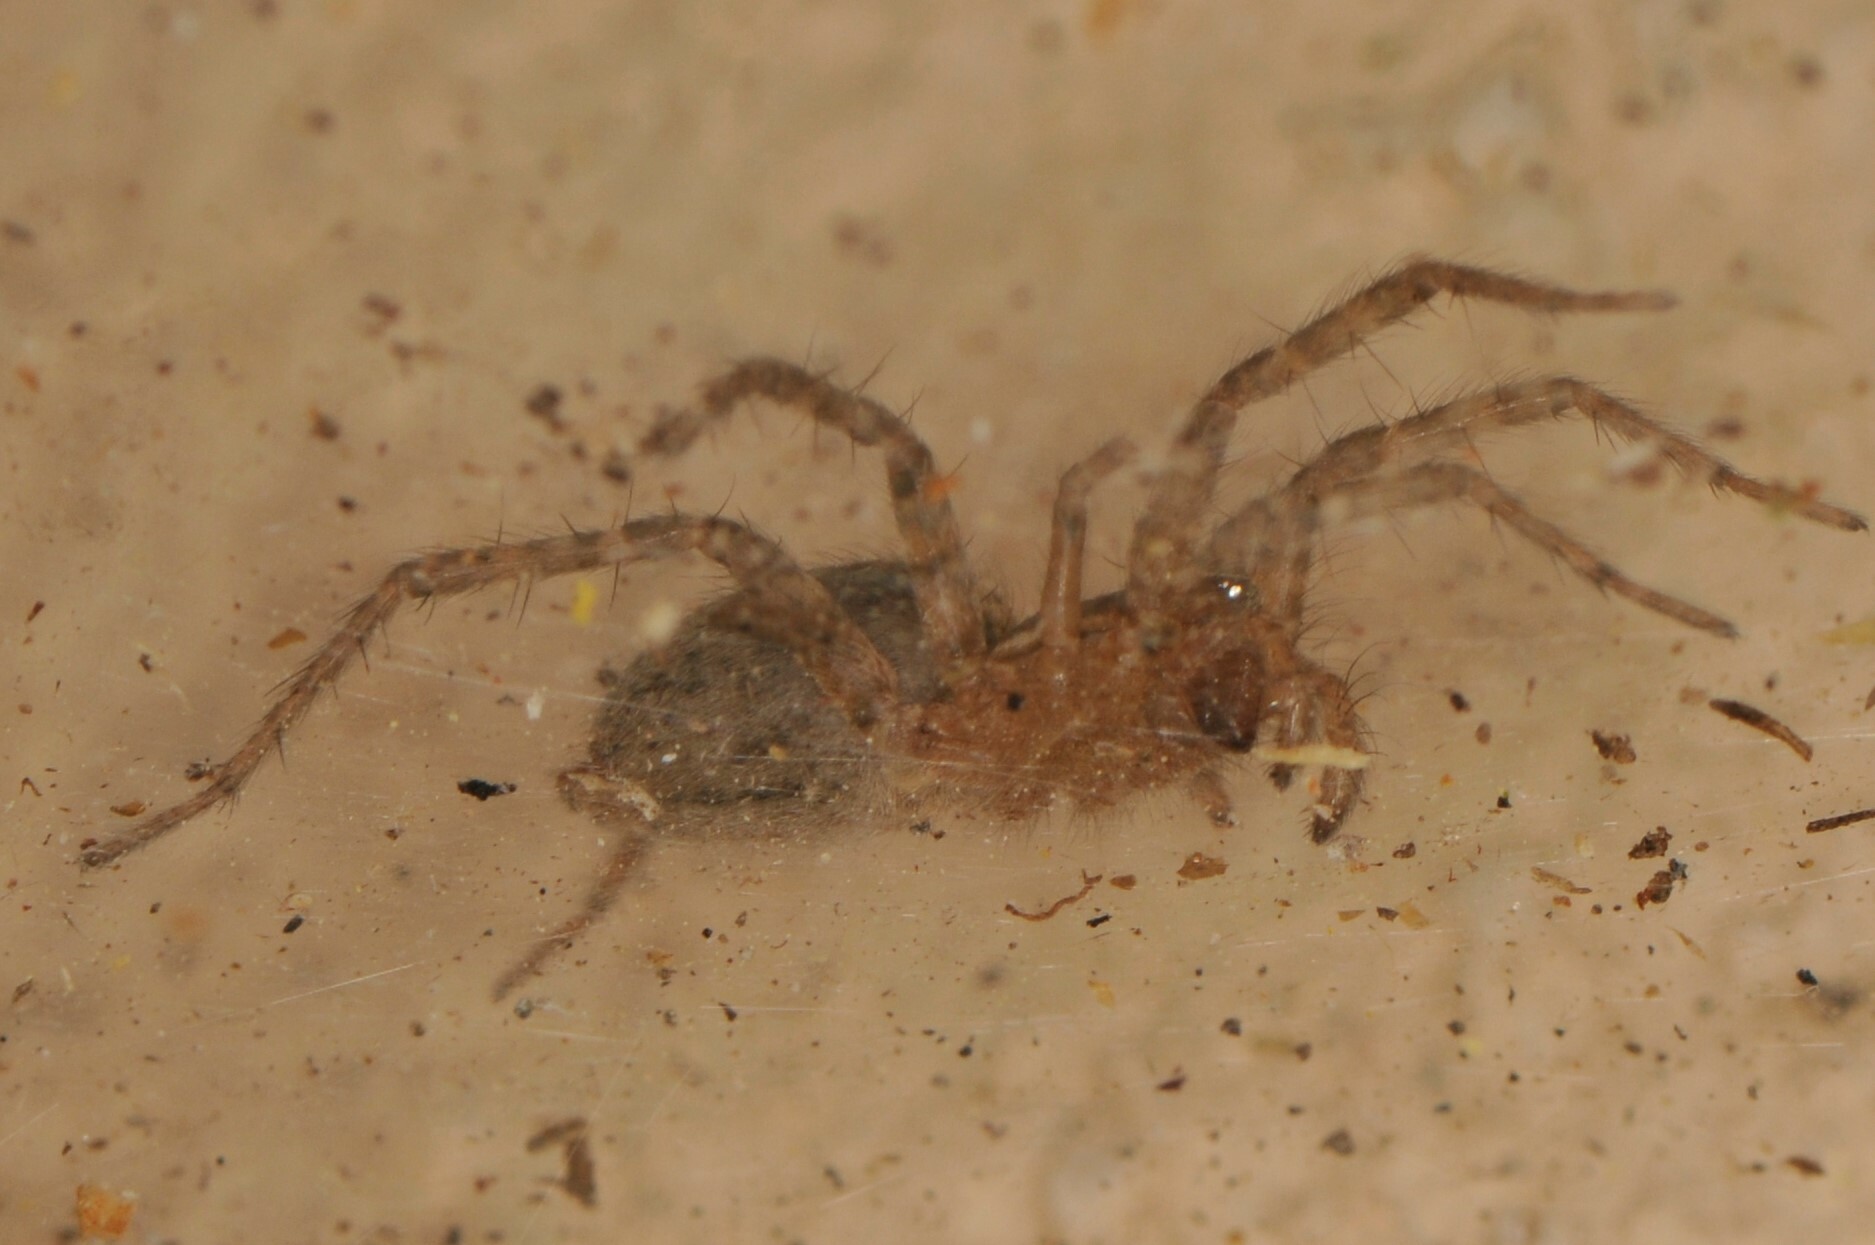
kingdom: Animalia
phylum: Arthropoda
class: Arachnida
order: Araneae
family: Agelenidae
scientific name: Agelenidae
